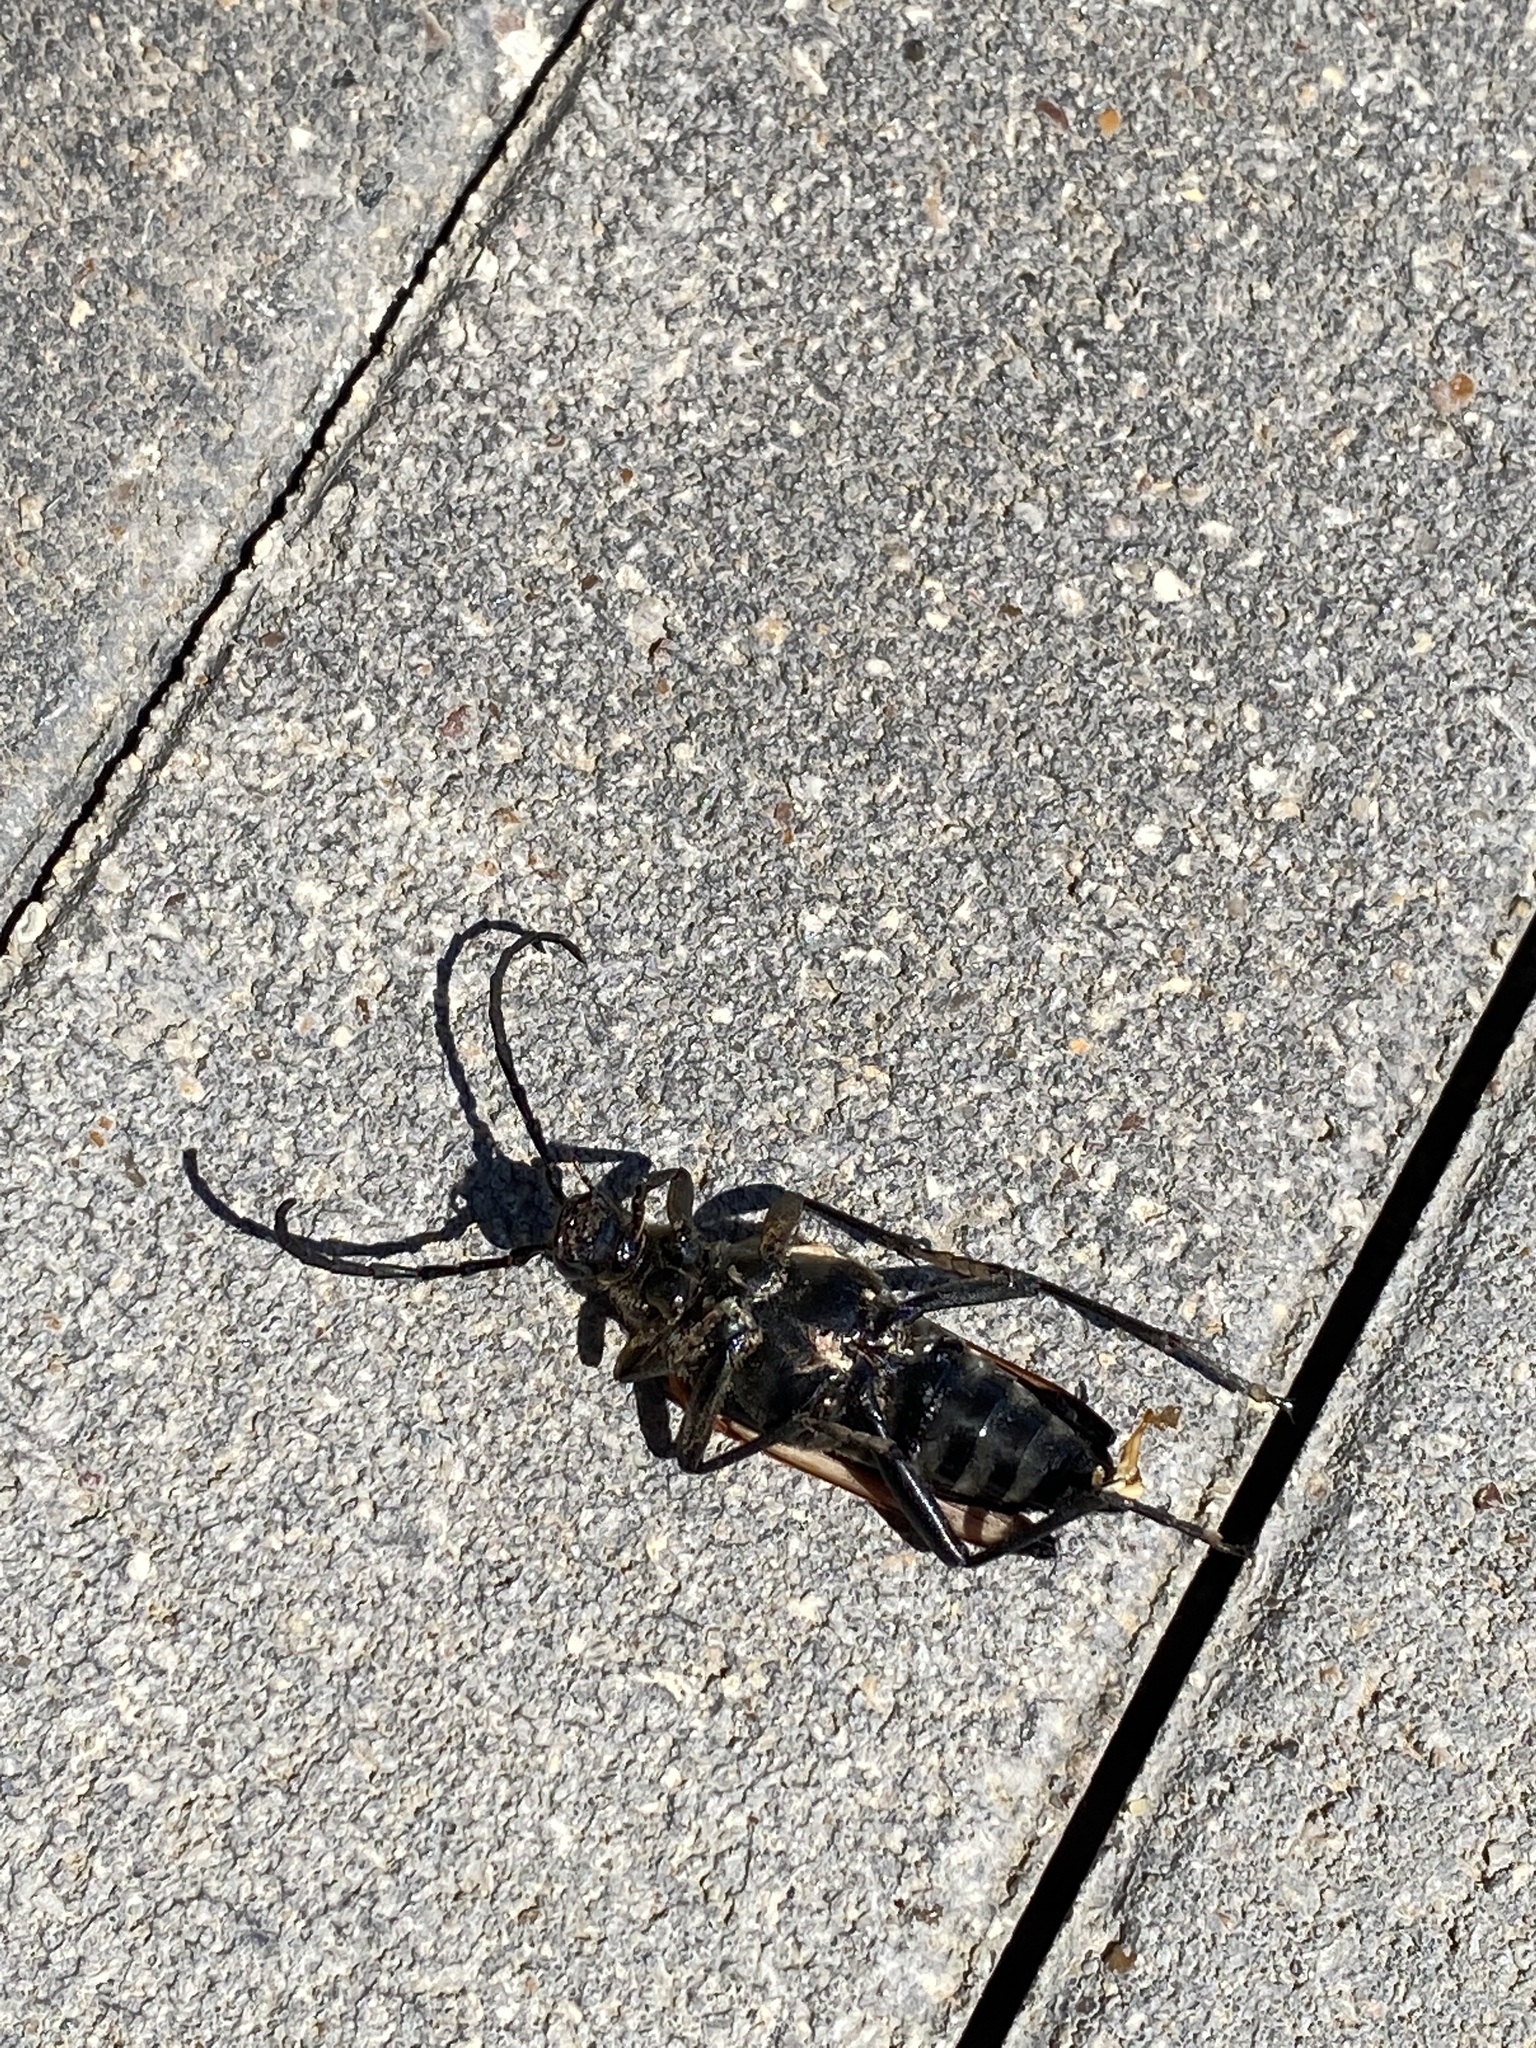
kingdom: Animalia
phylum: Arthropoda
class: Insecta
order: Coleoptera
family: Cerambycidae
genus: Stenelytrana
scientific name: Stenelytrana gigas
